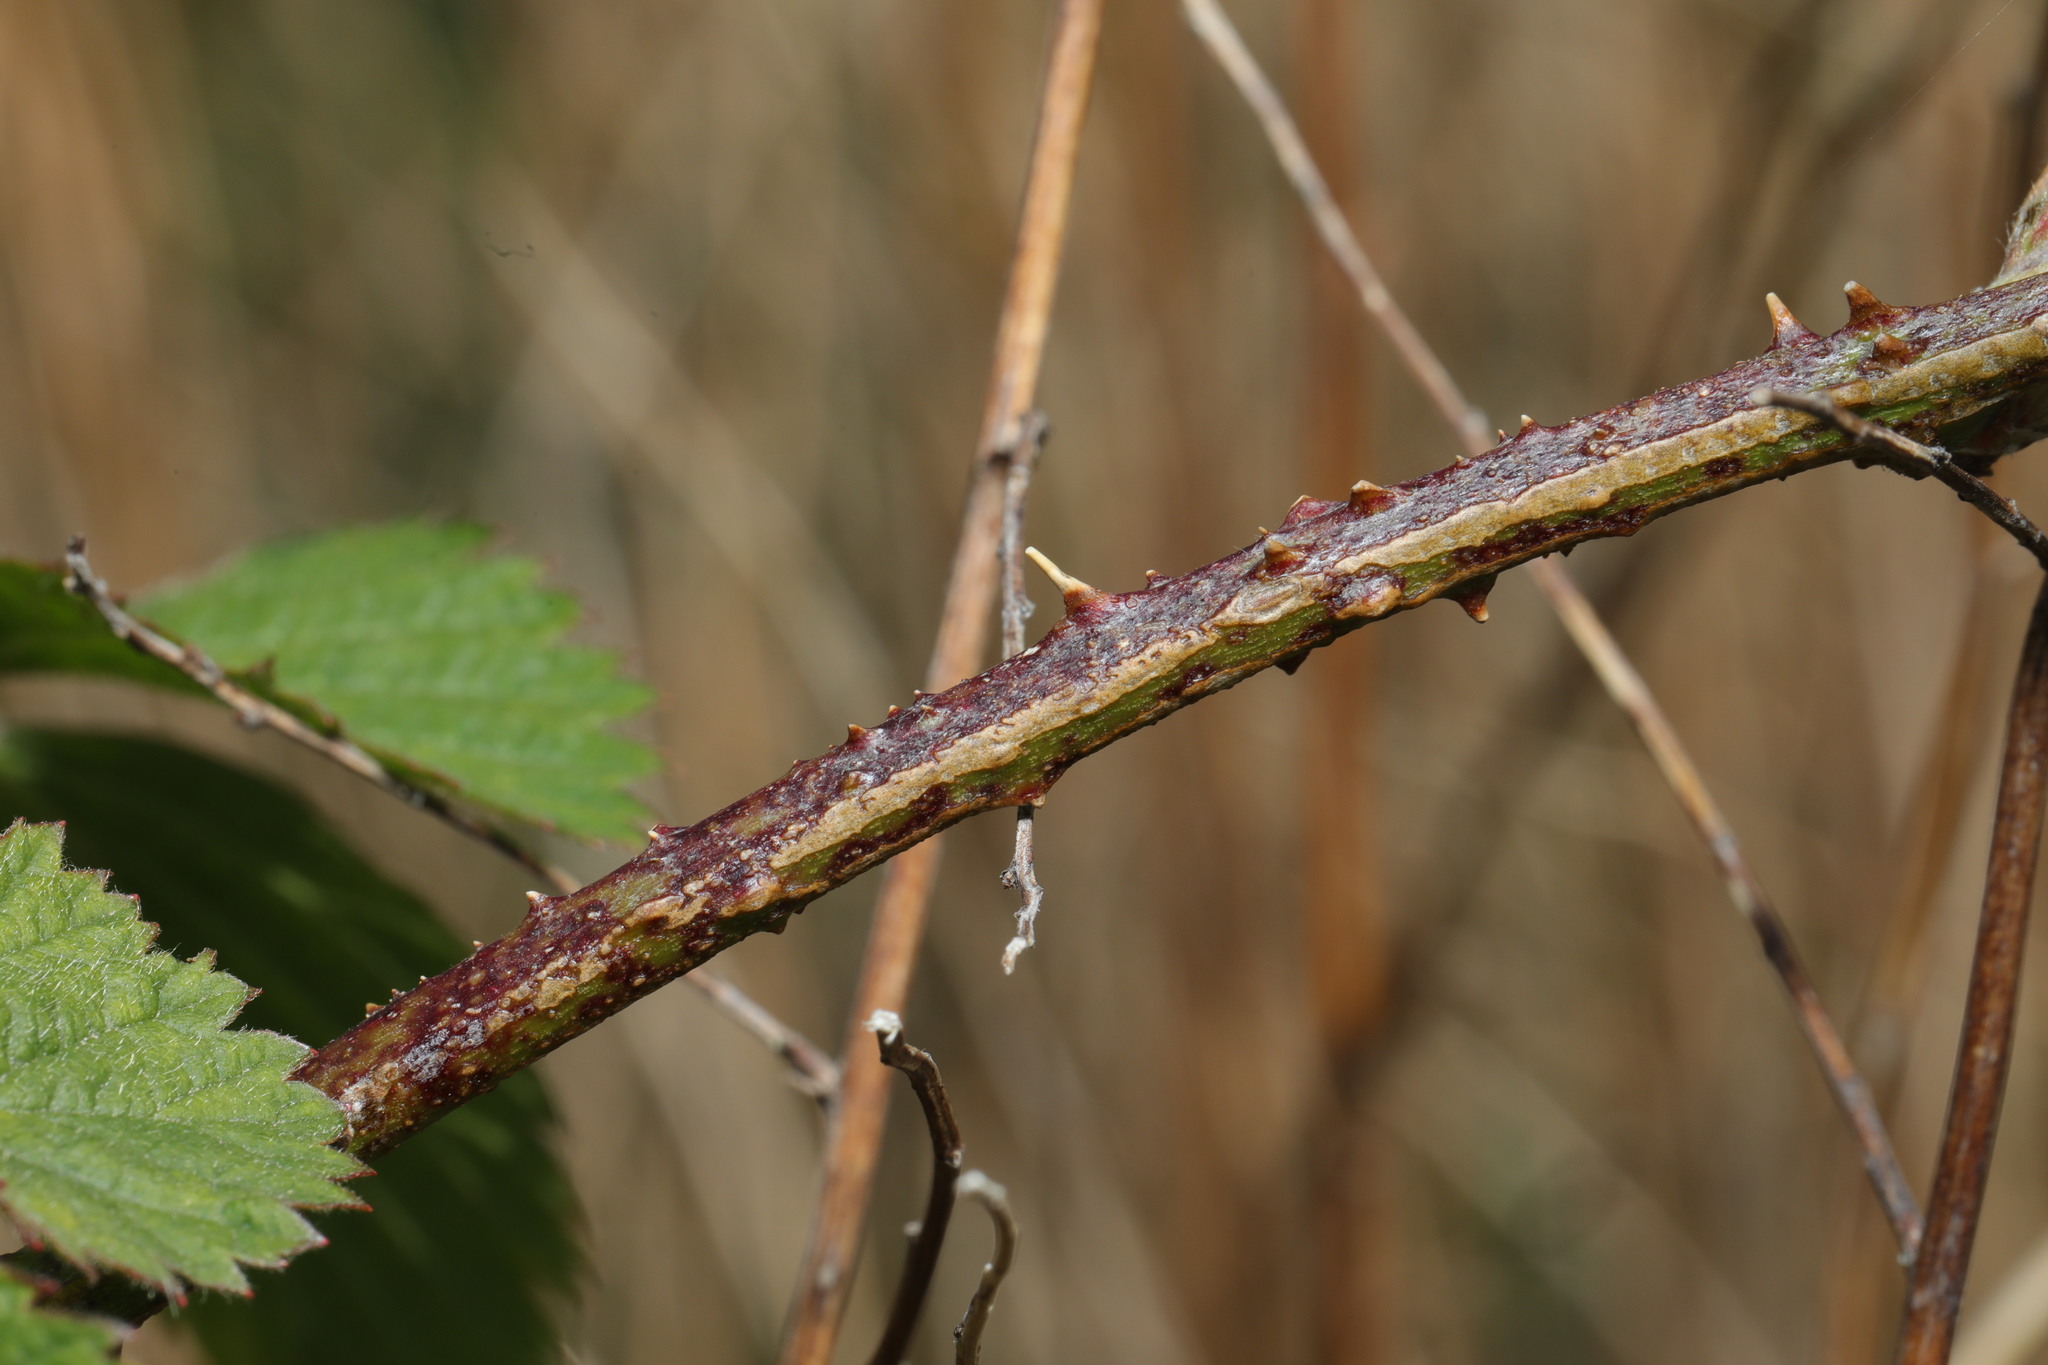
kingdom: Plantae
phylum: Tracheophyta
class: Magnoliopsida
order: Rosales
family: Rosaceae
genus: Rubus
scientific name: Rubus idaeus
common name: Raspberry
